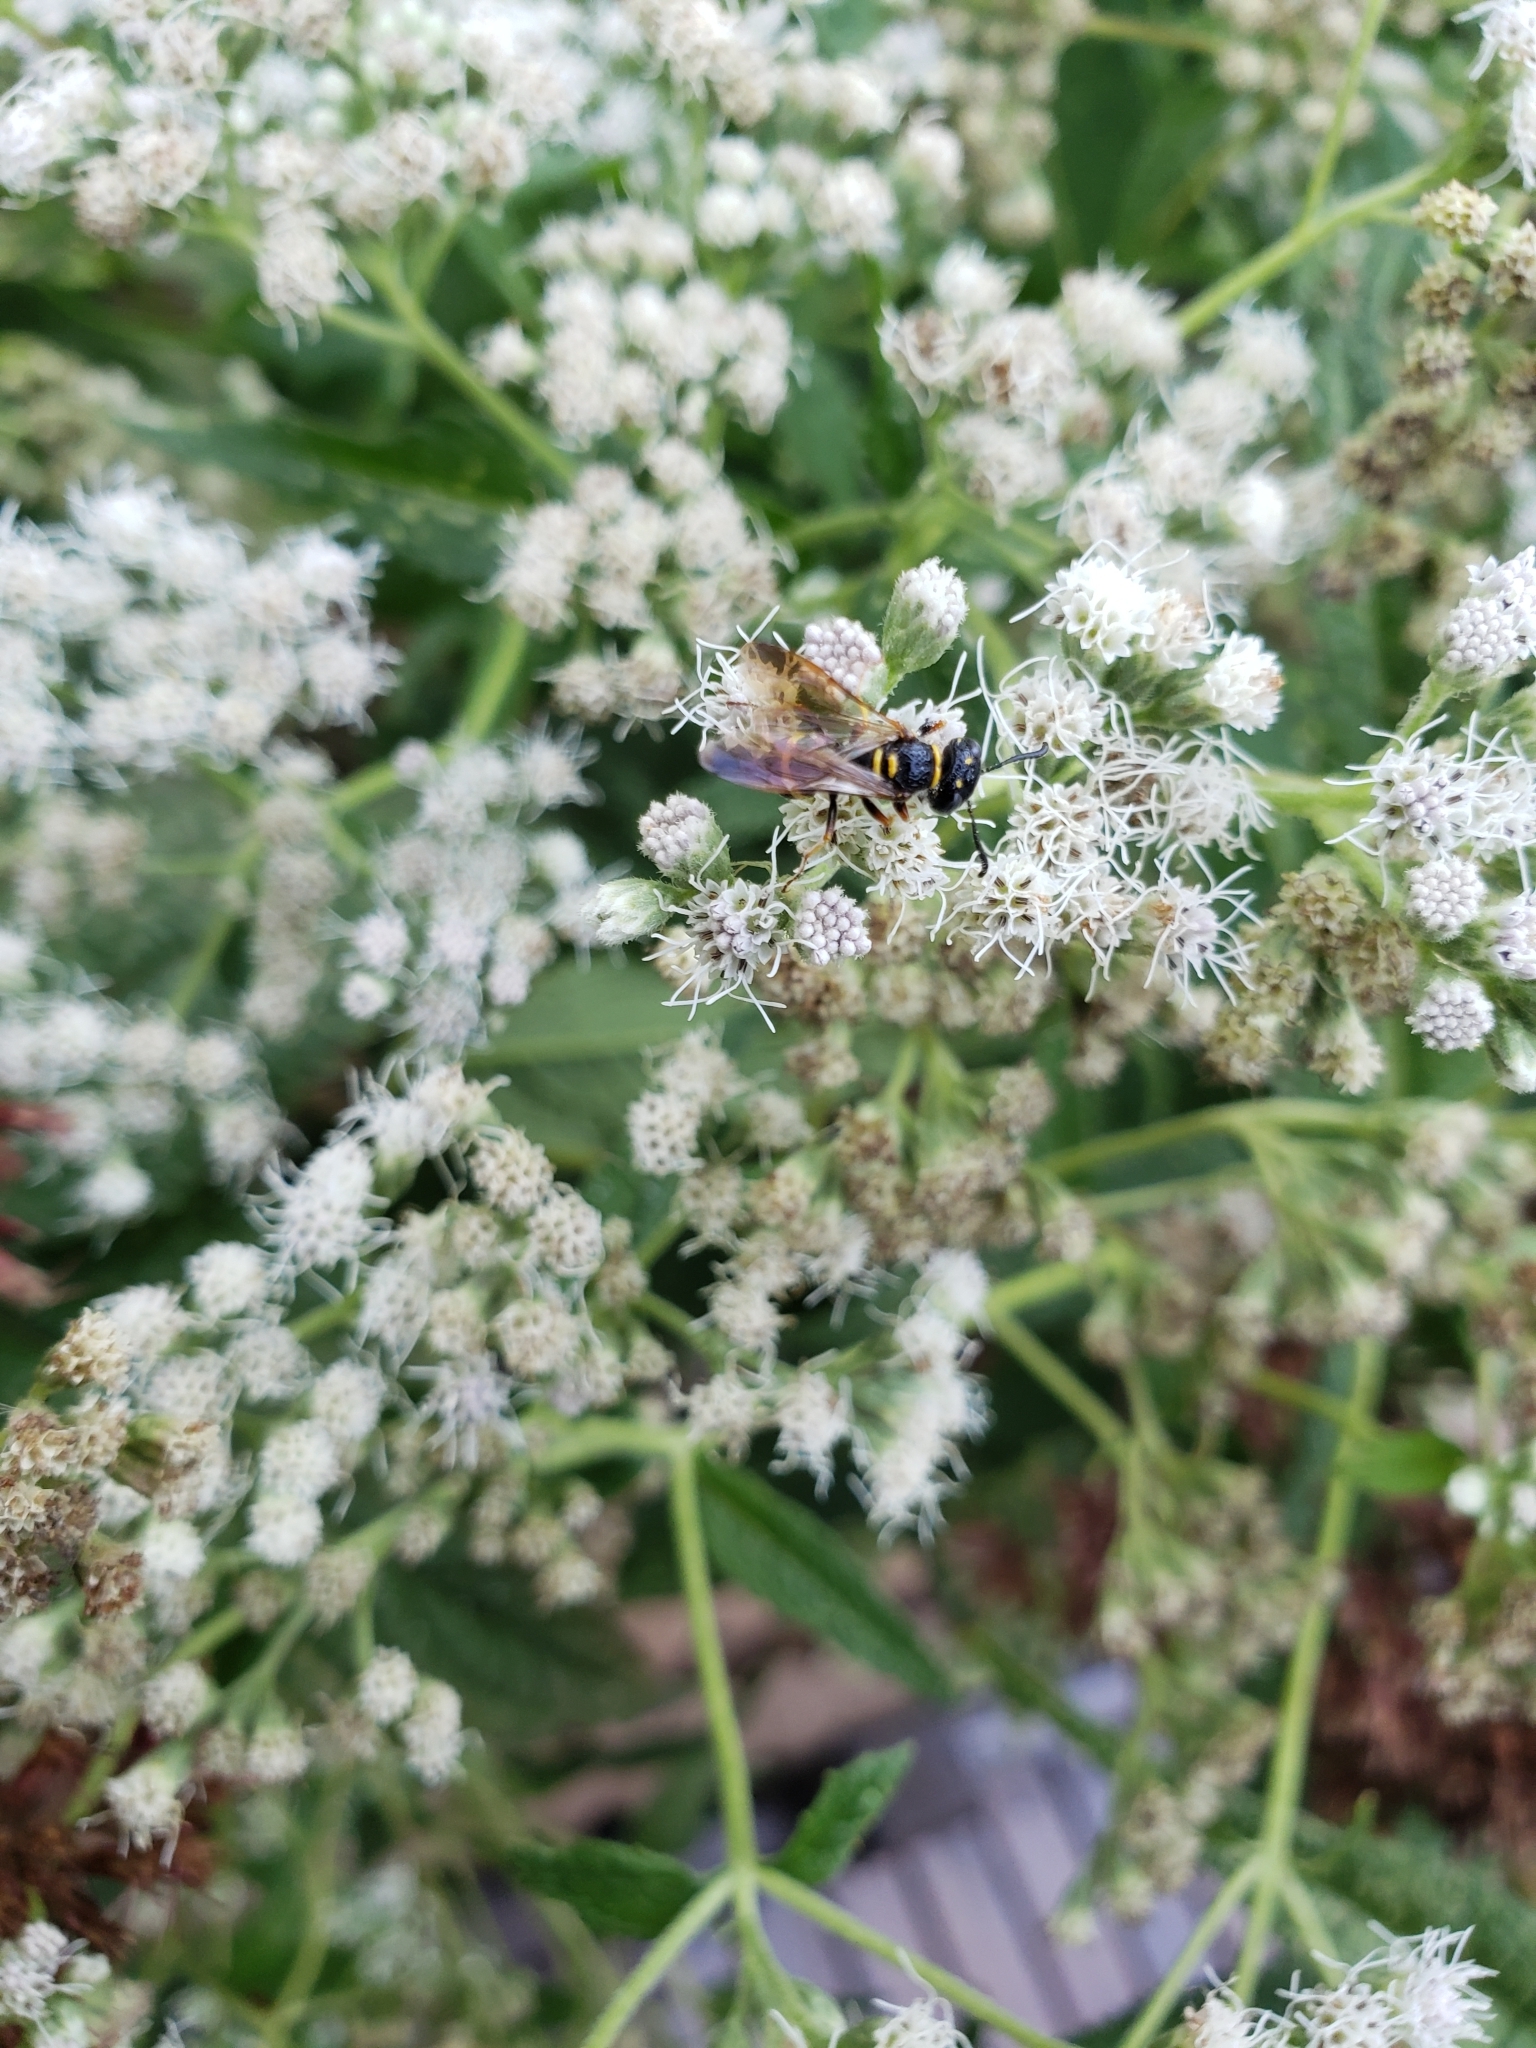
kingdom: Animalia
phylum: Arthropoda
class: Insecta
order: Hymenoptera
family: Crabronidae
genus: Philanthus
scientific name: Philanthus gibbosus
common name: Humped beewolf
